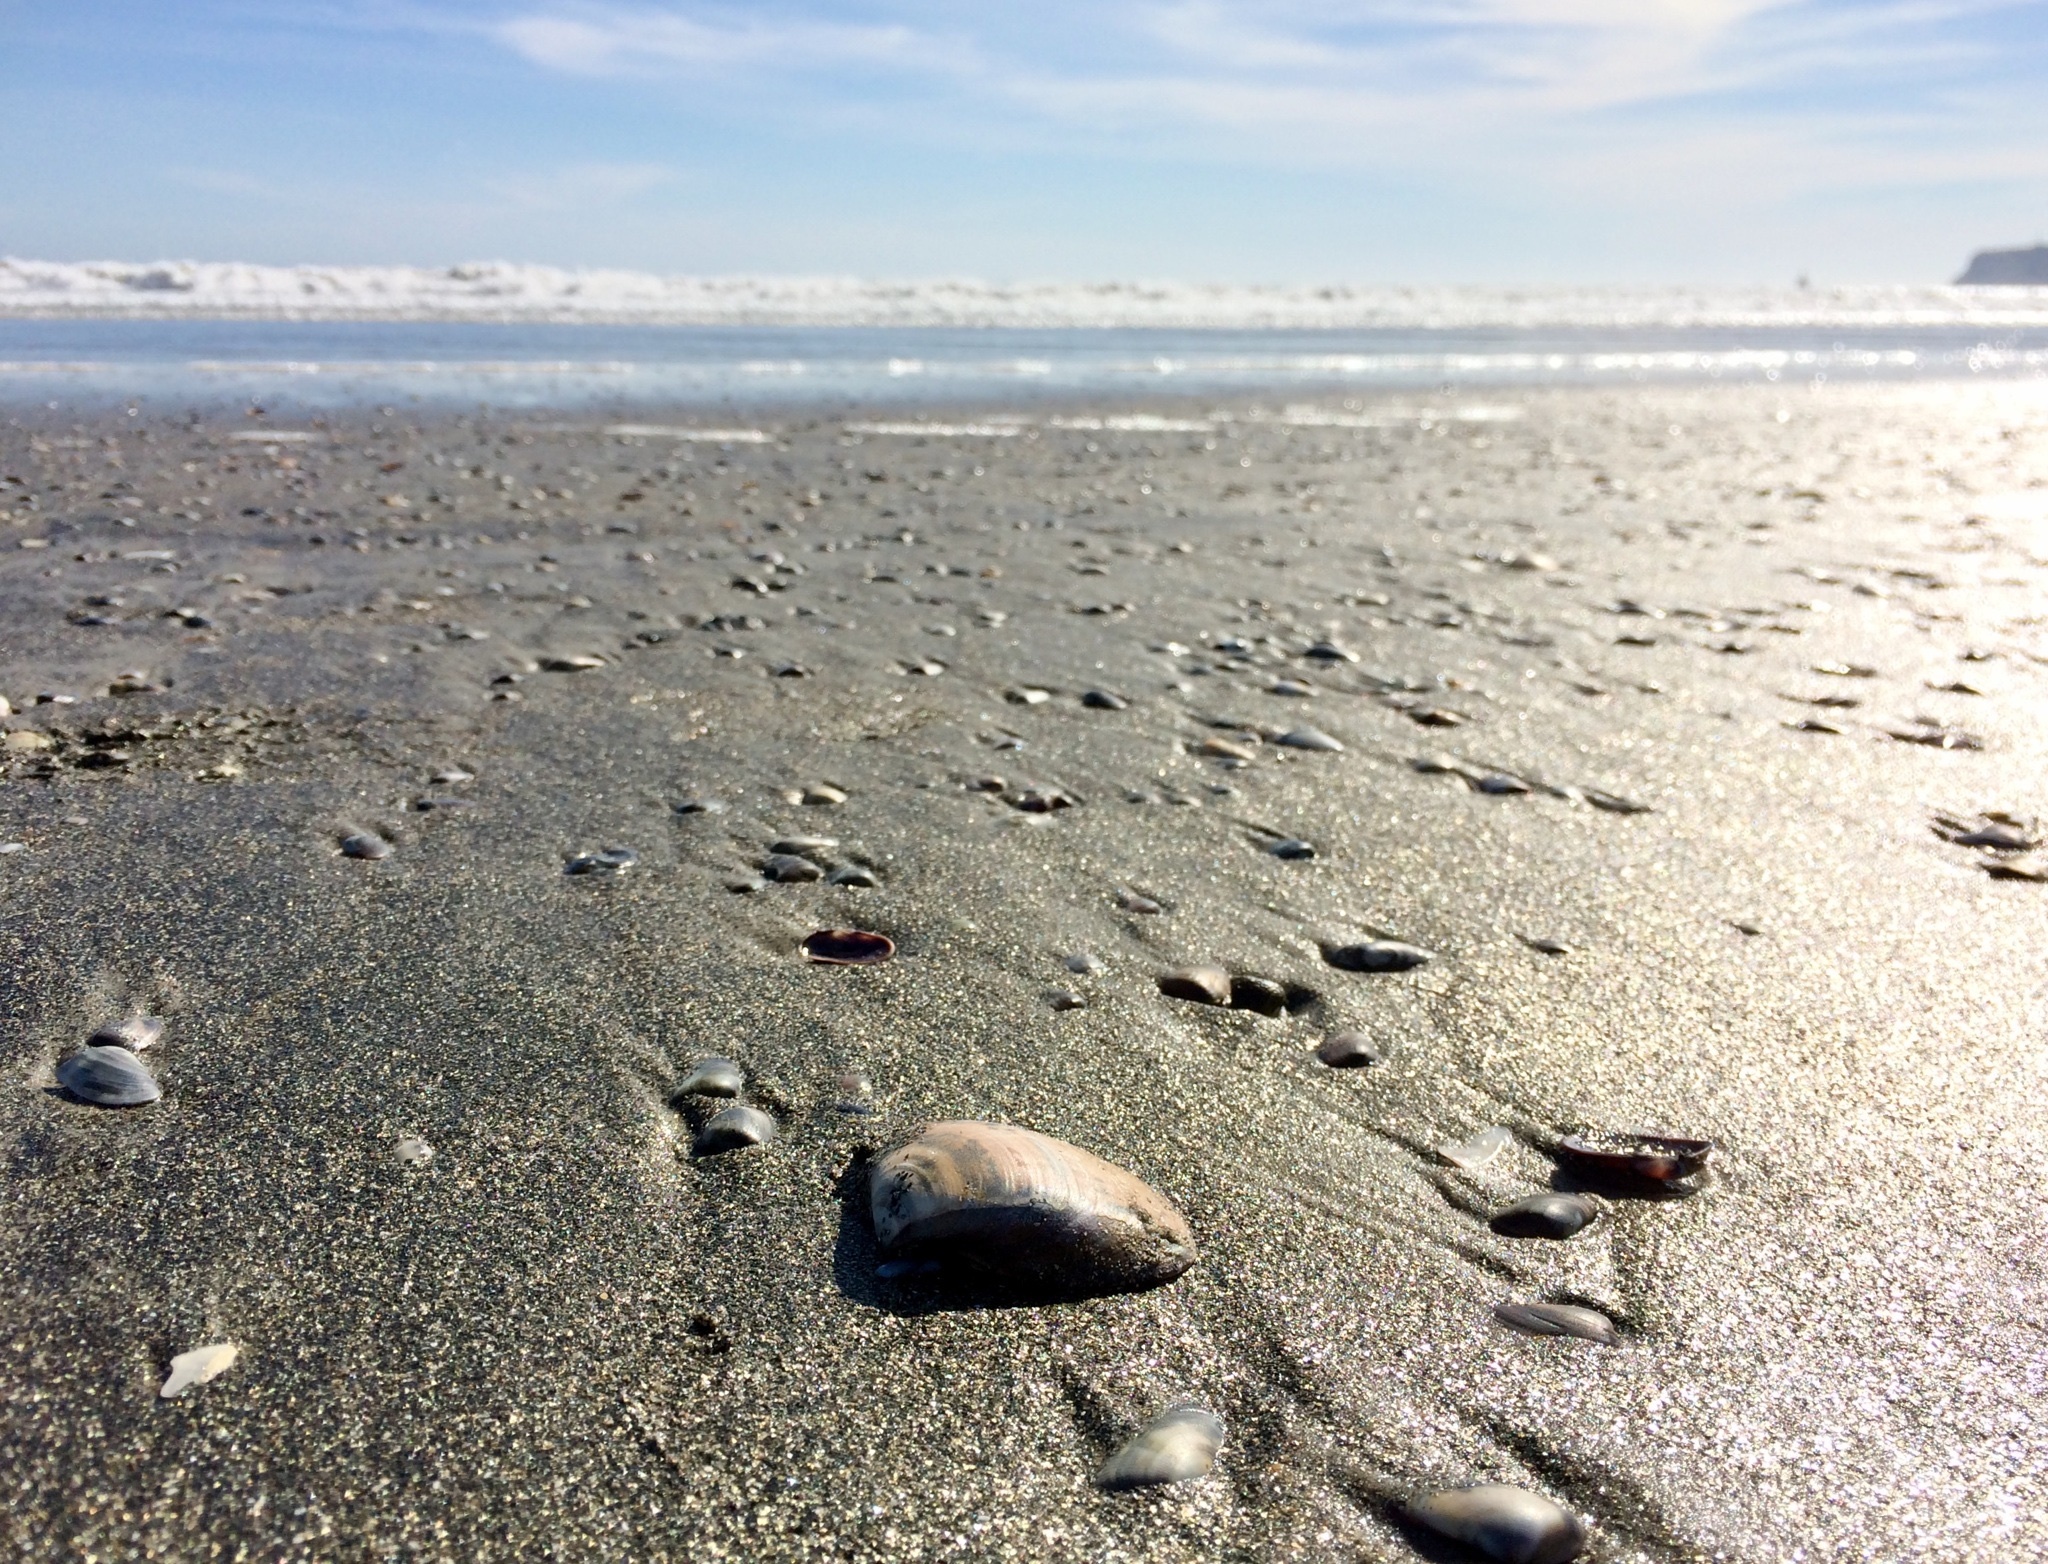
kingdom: Animalia
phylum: Mollusca
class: Bivalvia
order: Venerida
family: Veneridae
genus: Tivela
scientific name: Tivela stultorum
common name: Pismo clam
